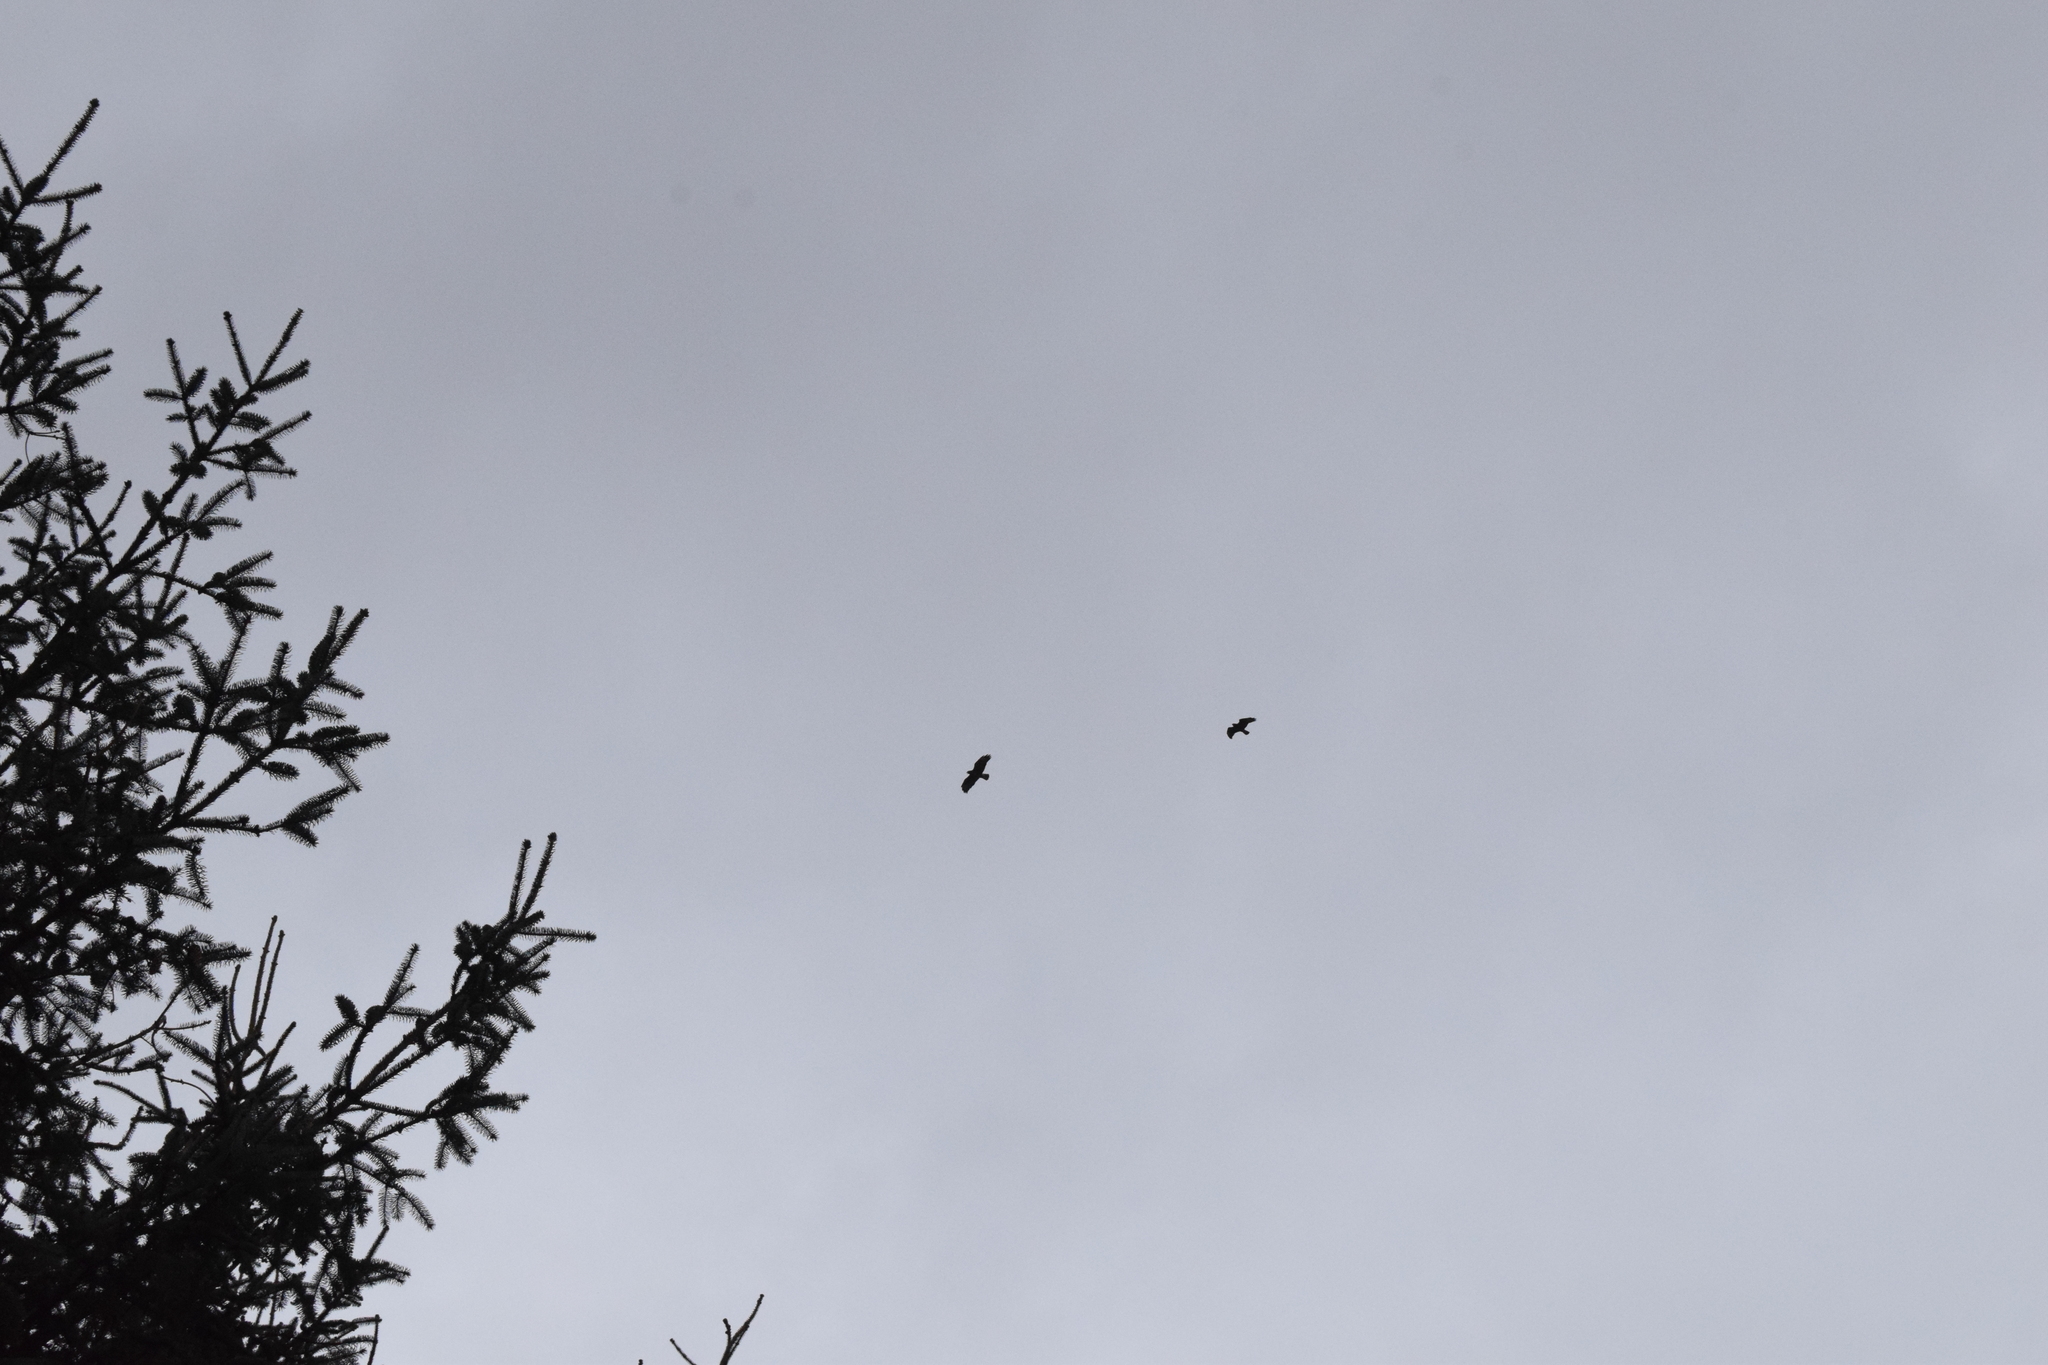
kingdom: Animalia
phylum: Chordata
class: Aves
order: Accipitriformes
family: Accipitridae
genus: Buteo
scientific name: Buteo buteo
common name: Common buzzard
